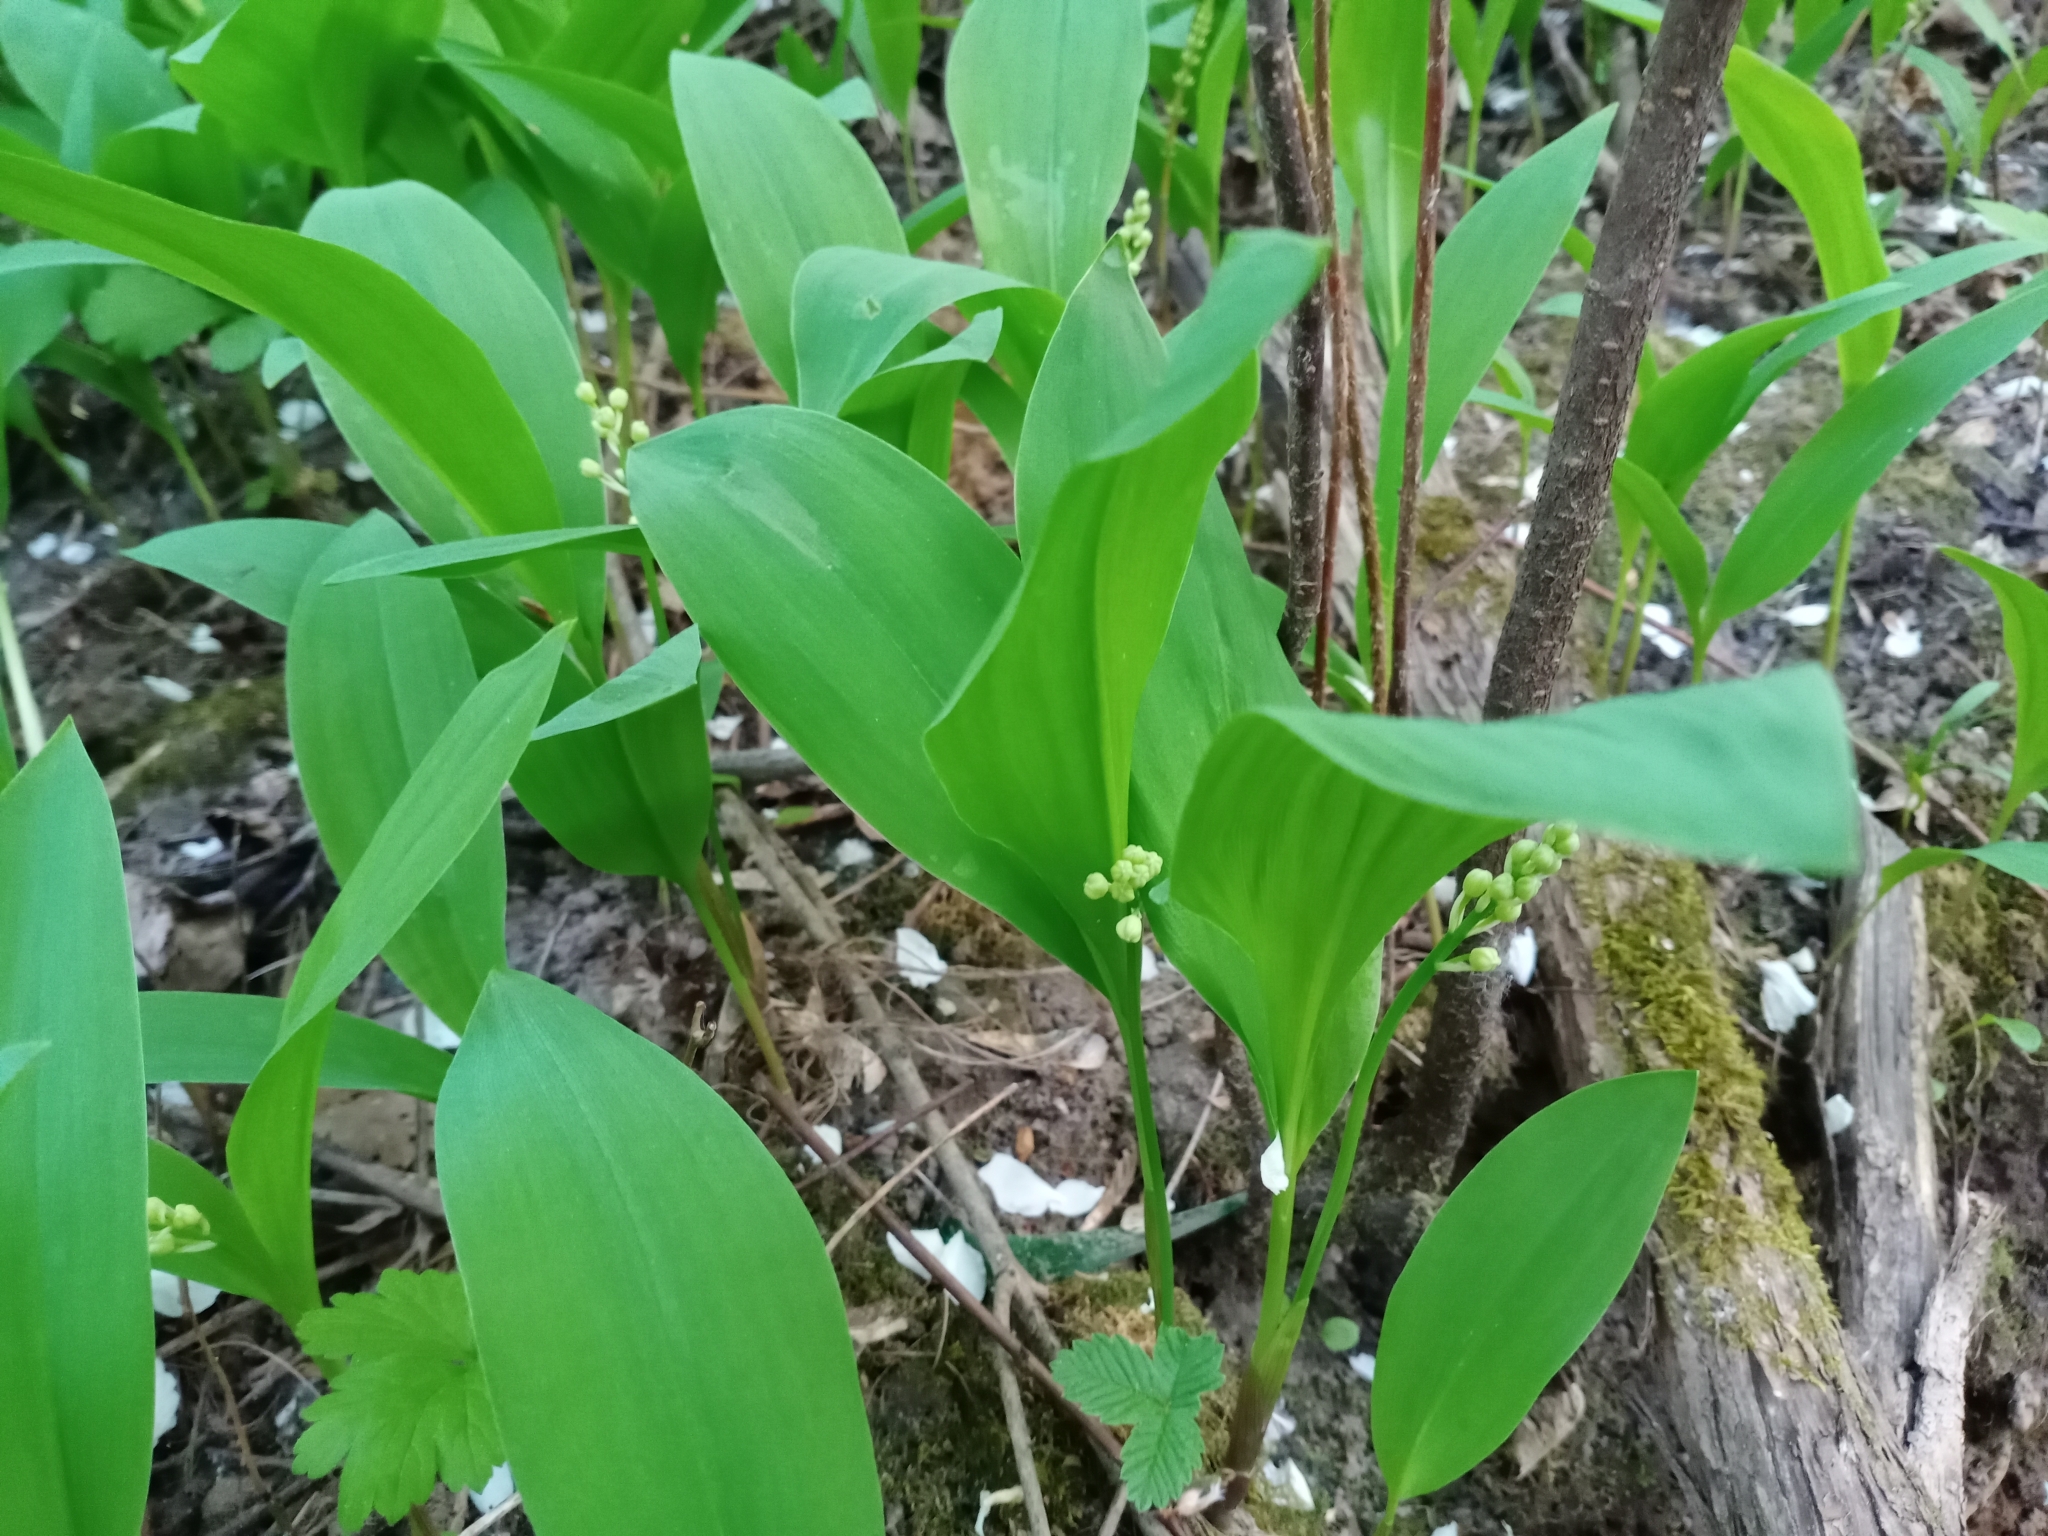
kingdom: Plantae
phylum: Tracheophyta
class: Liliopsida
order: Asparagales
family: Asparagaceae
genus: Convallaria
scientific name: Convallaria majalis
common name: Lily-of-the-valley
